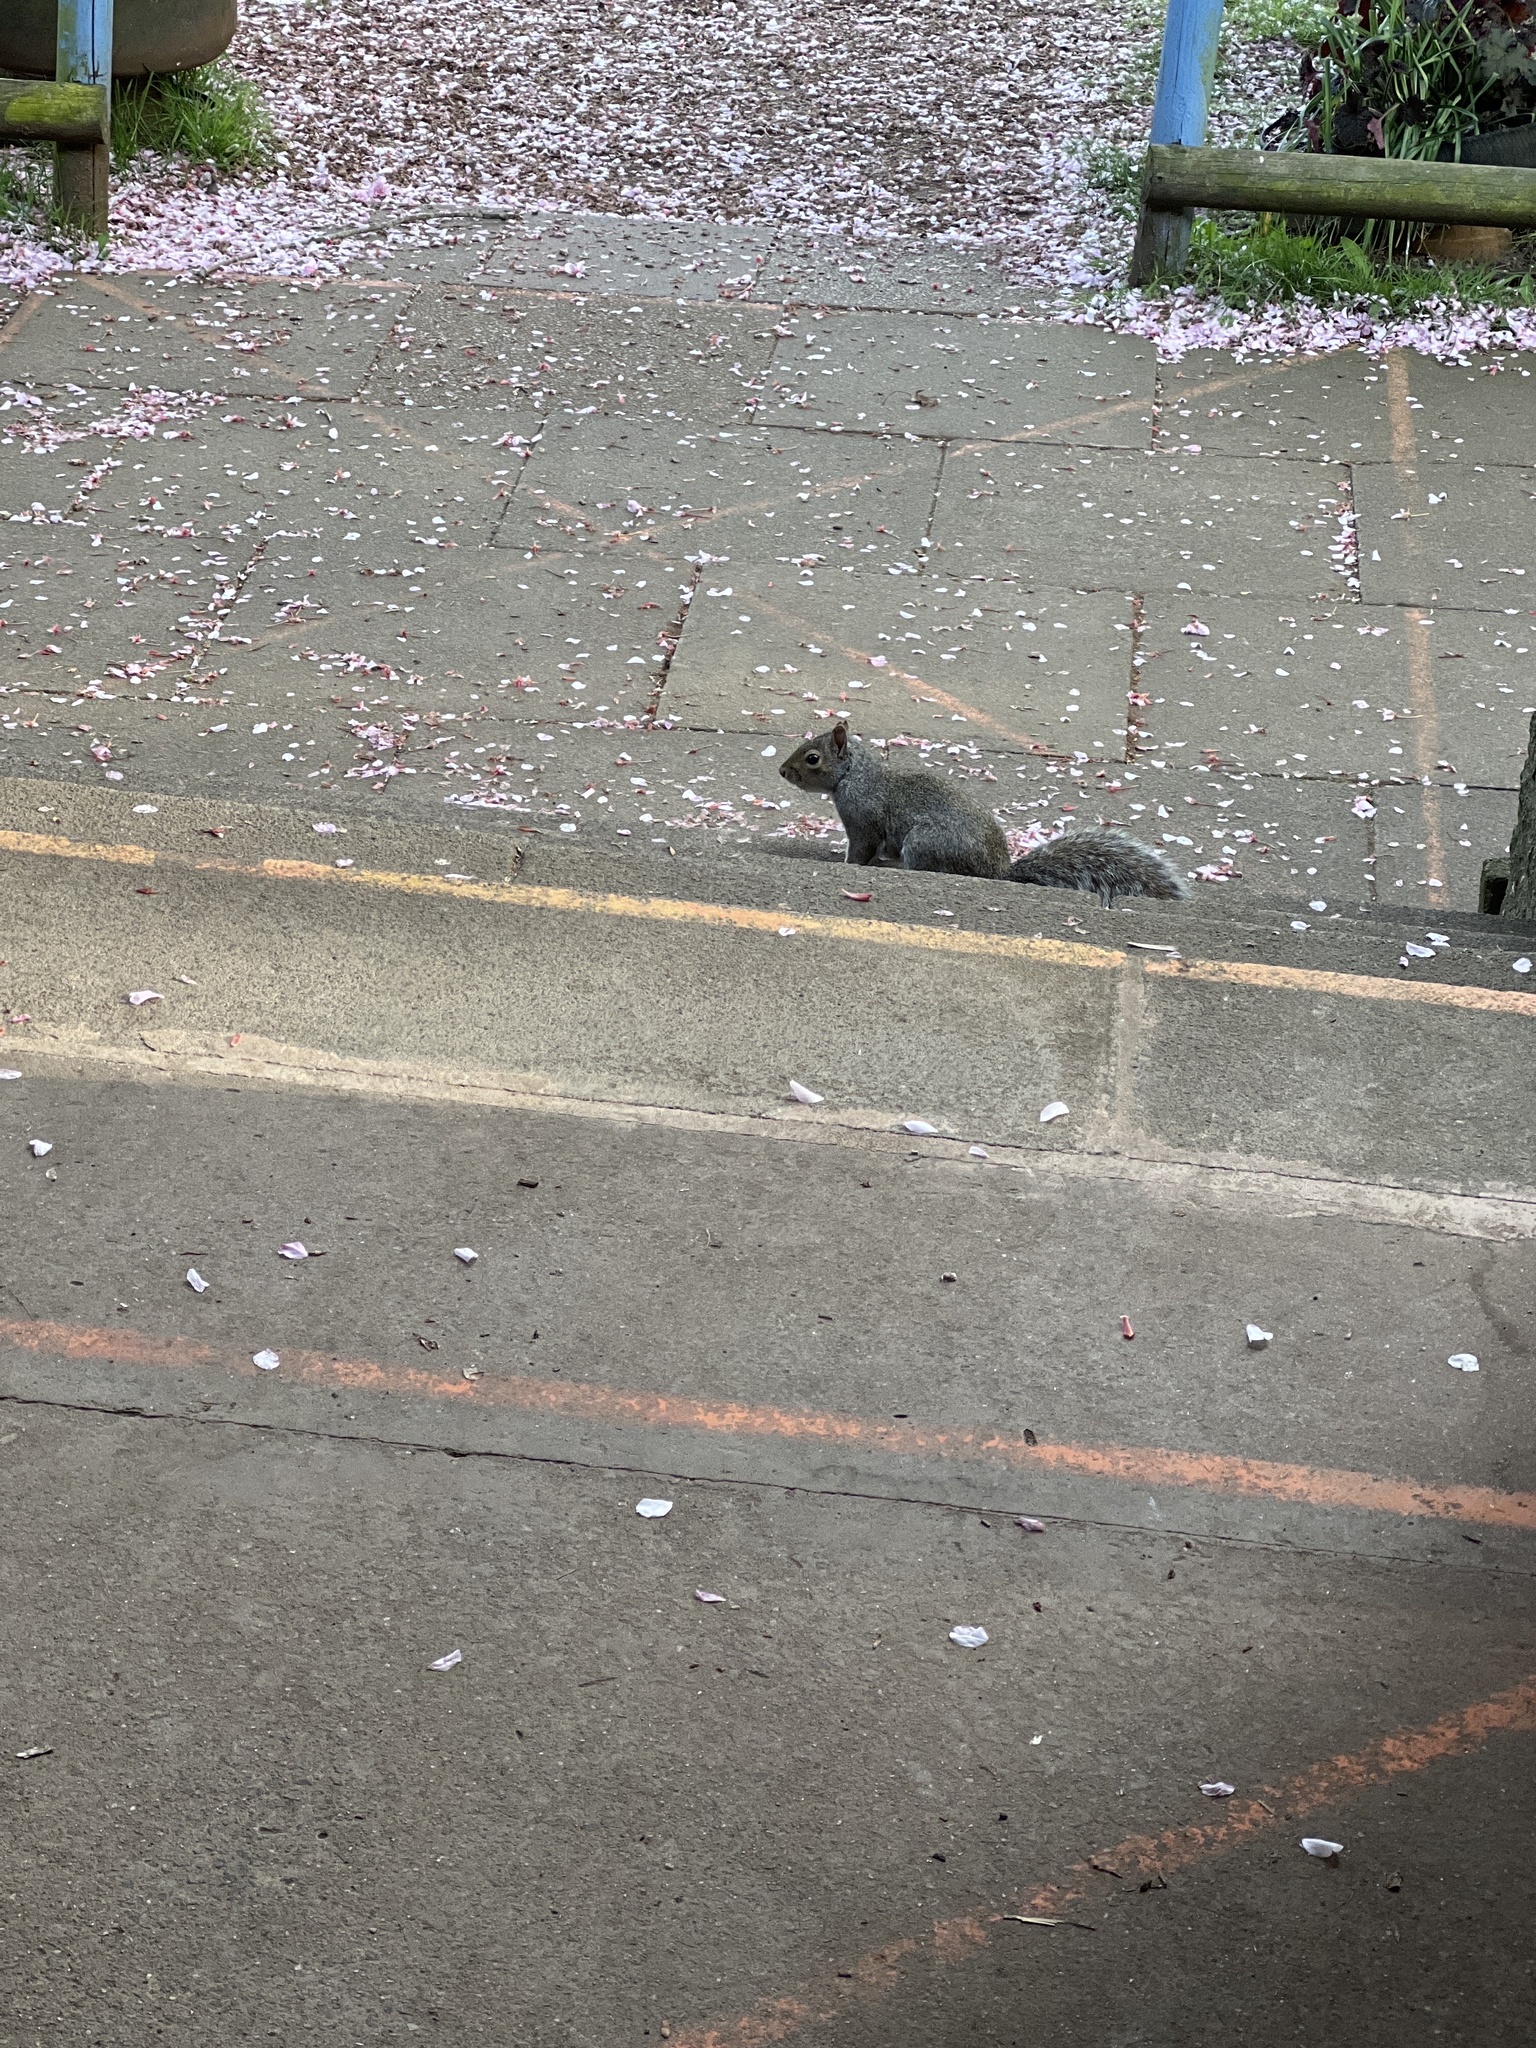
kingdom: Animalia
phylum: Chordata
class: Mammalia
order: Rodentia
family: Sciuridae
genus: Sciurus
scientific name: Sciurus carolinensis
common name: Eastern gray squirrel
